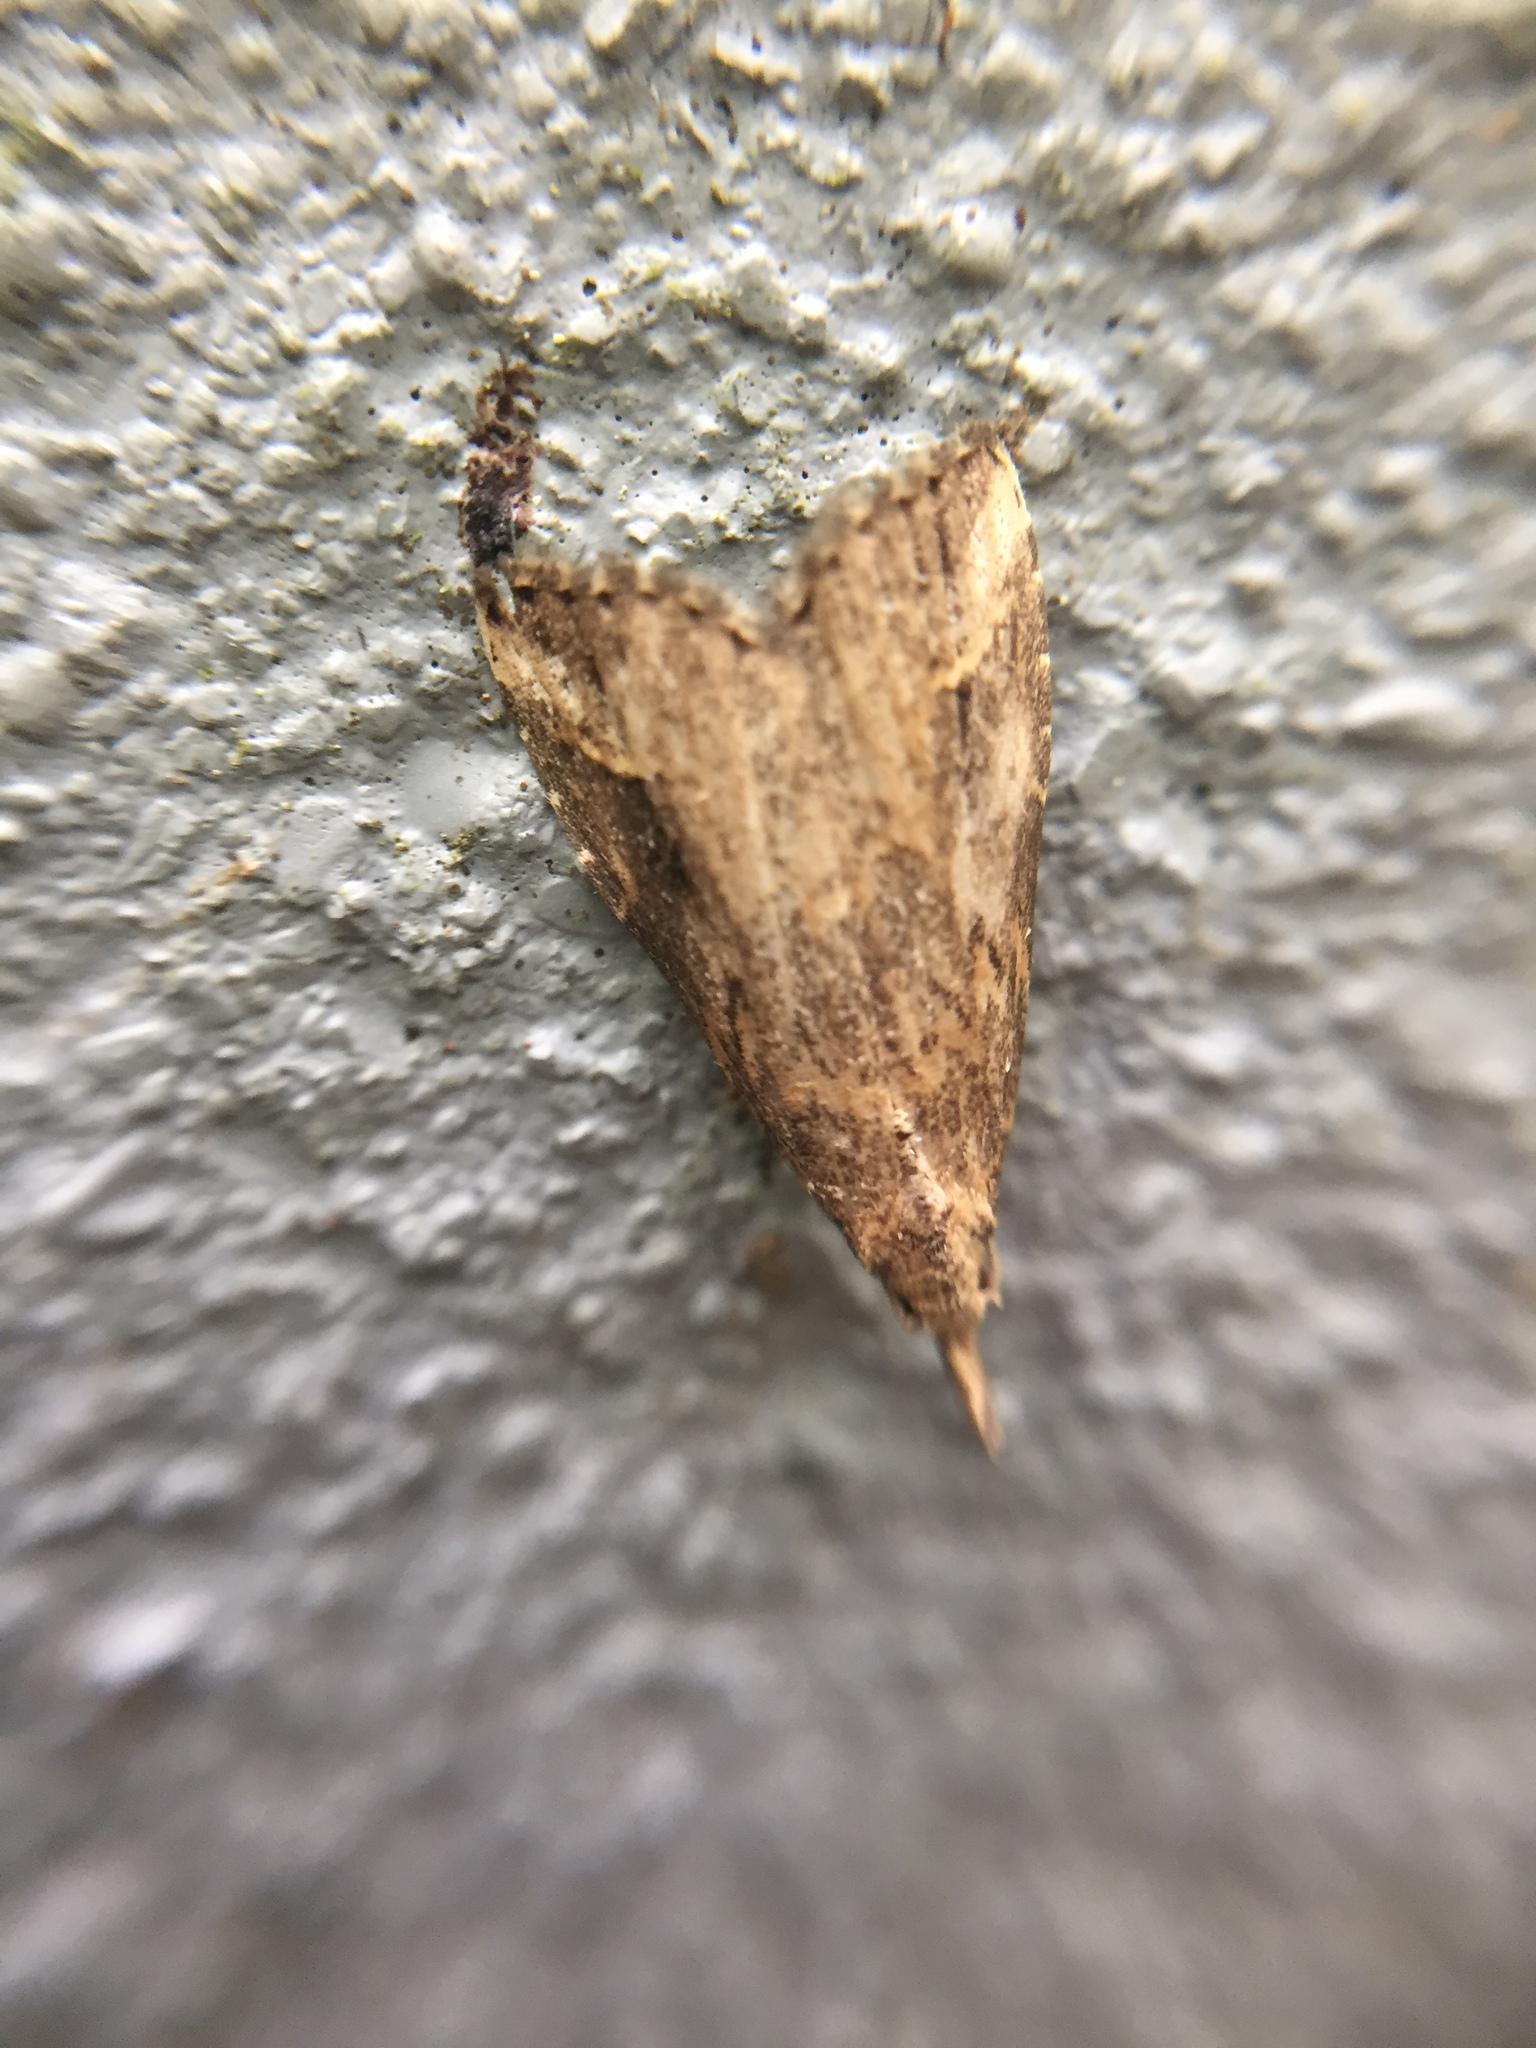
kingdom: Animalia
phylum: Arthropoda
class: Insecta
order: Lepidoptera
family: Erebidae
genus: Schrankia
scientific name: Schrankia costaestrigalis
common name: Pinion-streaked snout
